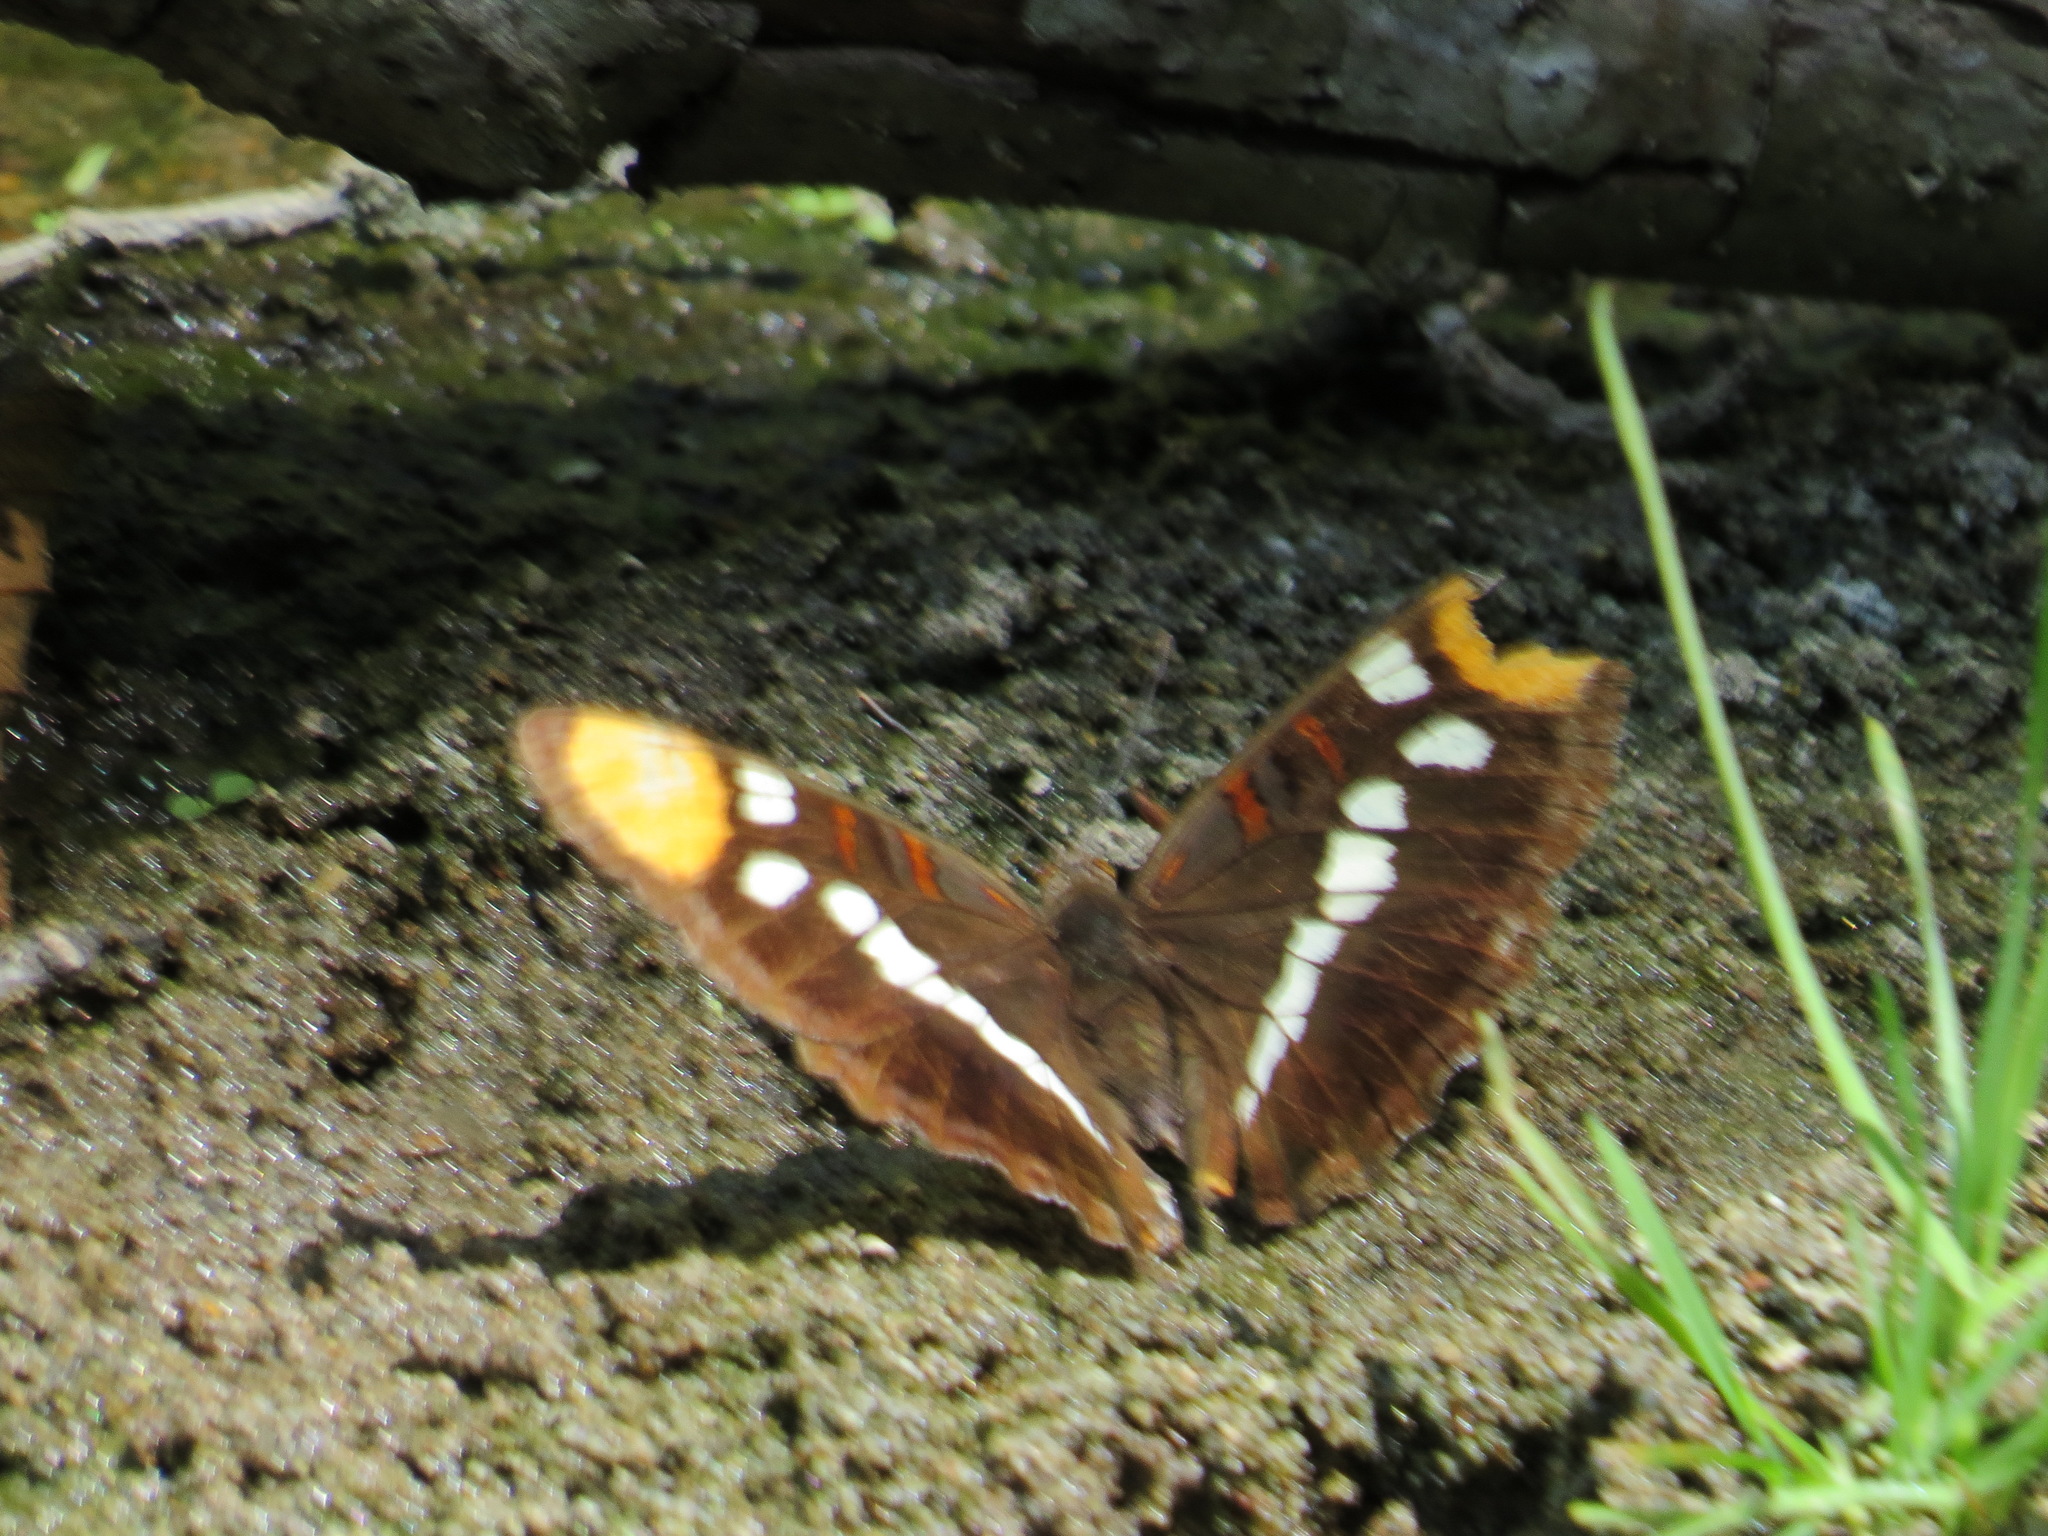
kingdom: Animalia
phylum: Arthropoda
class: Insecta
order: Lepidoptera
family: Nymphalidae
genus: Limenitis
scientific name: Limenitis bredowii
